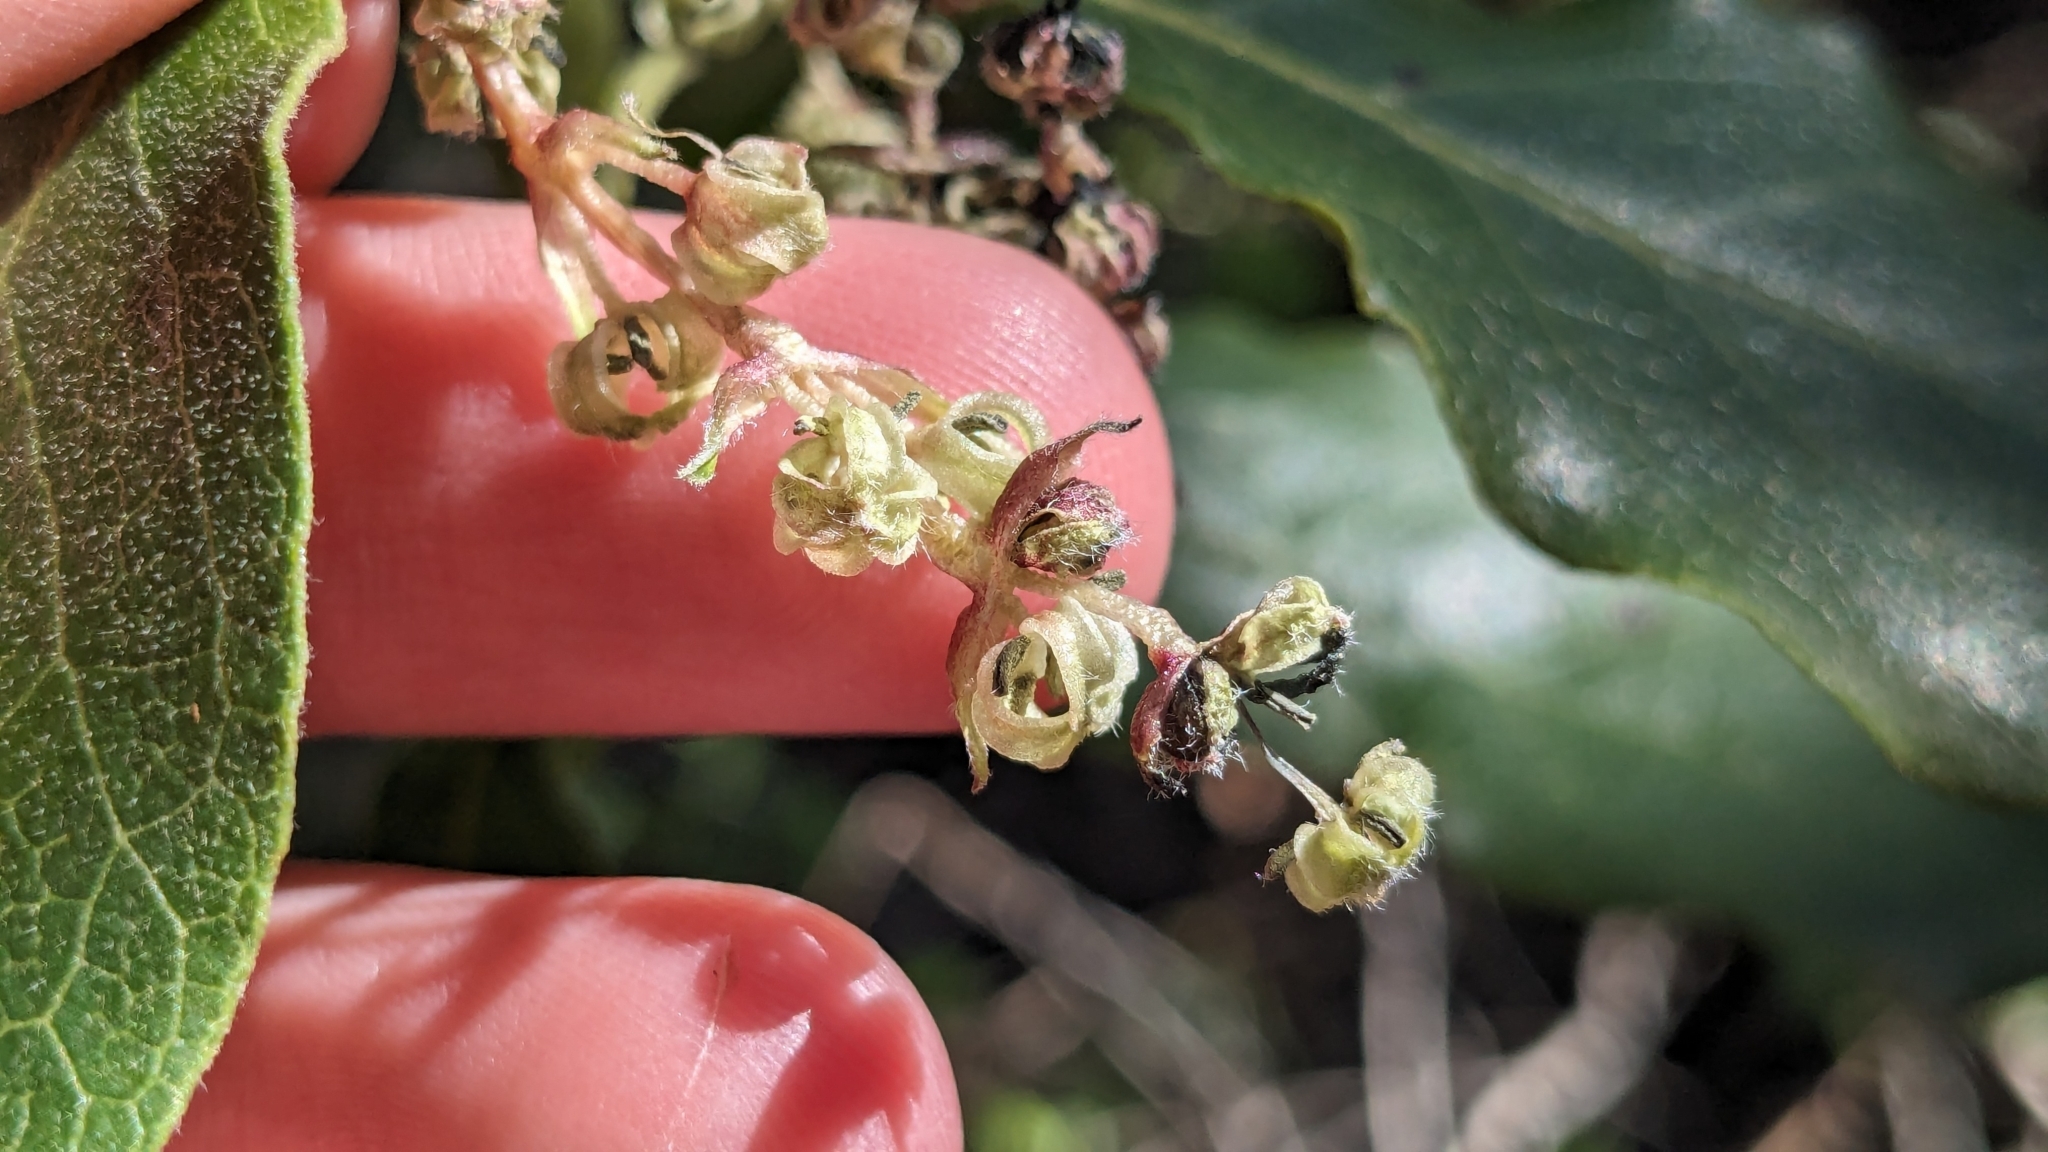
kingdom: Plantae
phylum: Tracheophyta
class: Magnoliopsida
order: Garryales
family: Garryaceae
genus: Garrya
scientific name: Garrya lindheimeri
